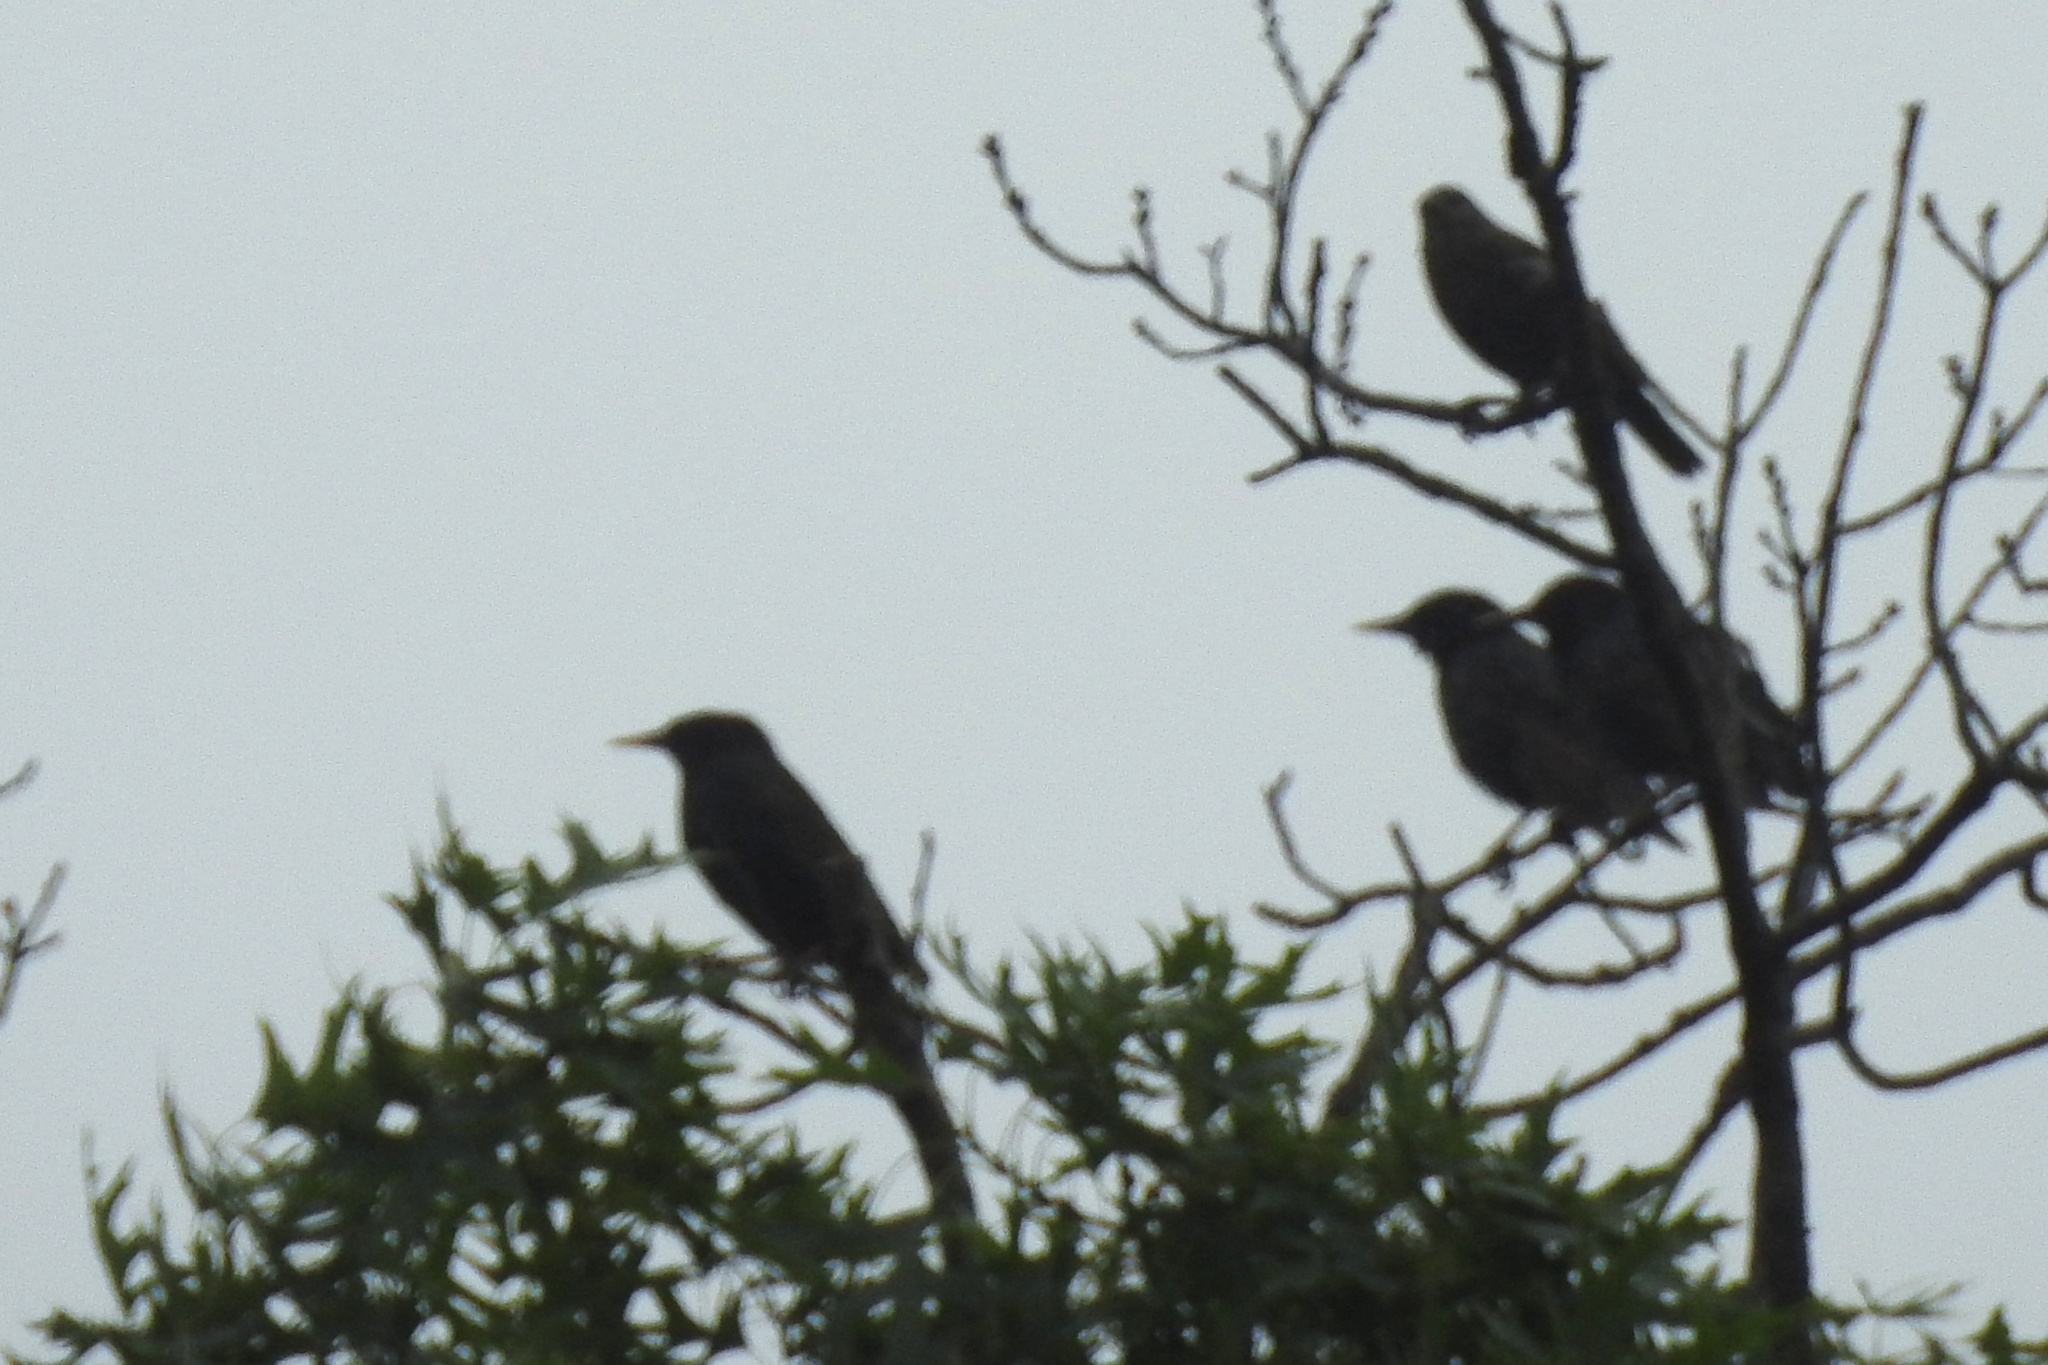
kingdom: Animalia
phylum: Chordata
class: Aves
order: Passeriformes
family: Sturnidae
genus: Sturnus
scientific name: Sturnus vulgaris
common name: Common starling
